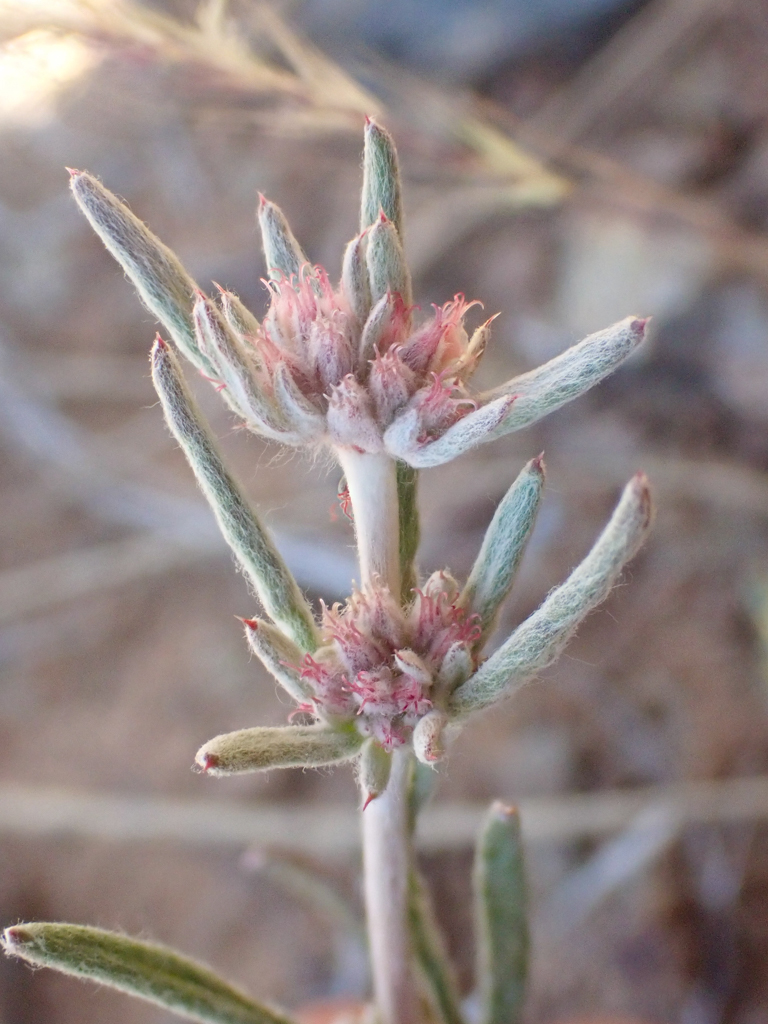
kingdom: Plantae
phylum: Tracheophyta
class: Magnoliopsida
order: Caryophyllales
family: Polygonaceae
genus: Chorizanthe
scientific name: Chorizanthe membranacea
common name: Pink spineflower
